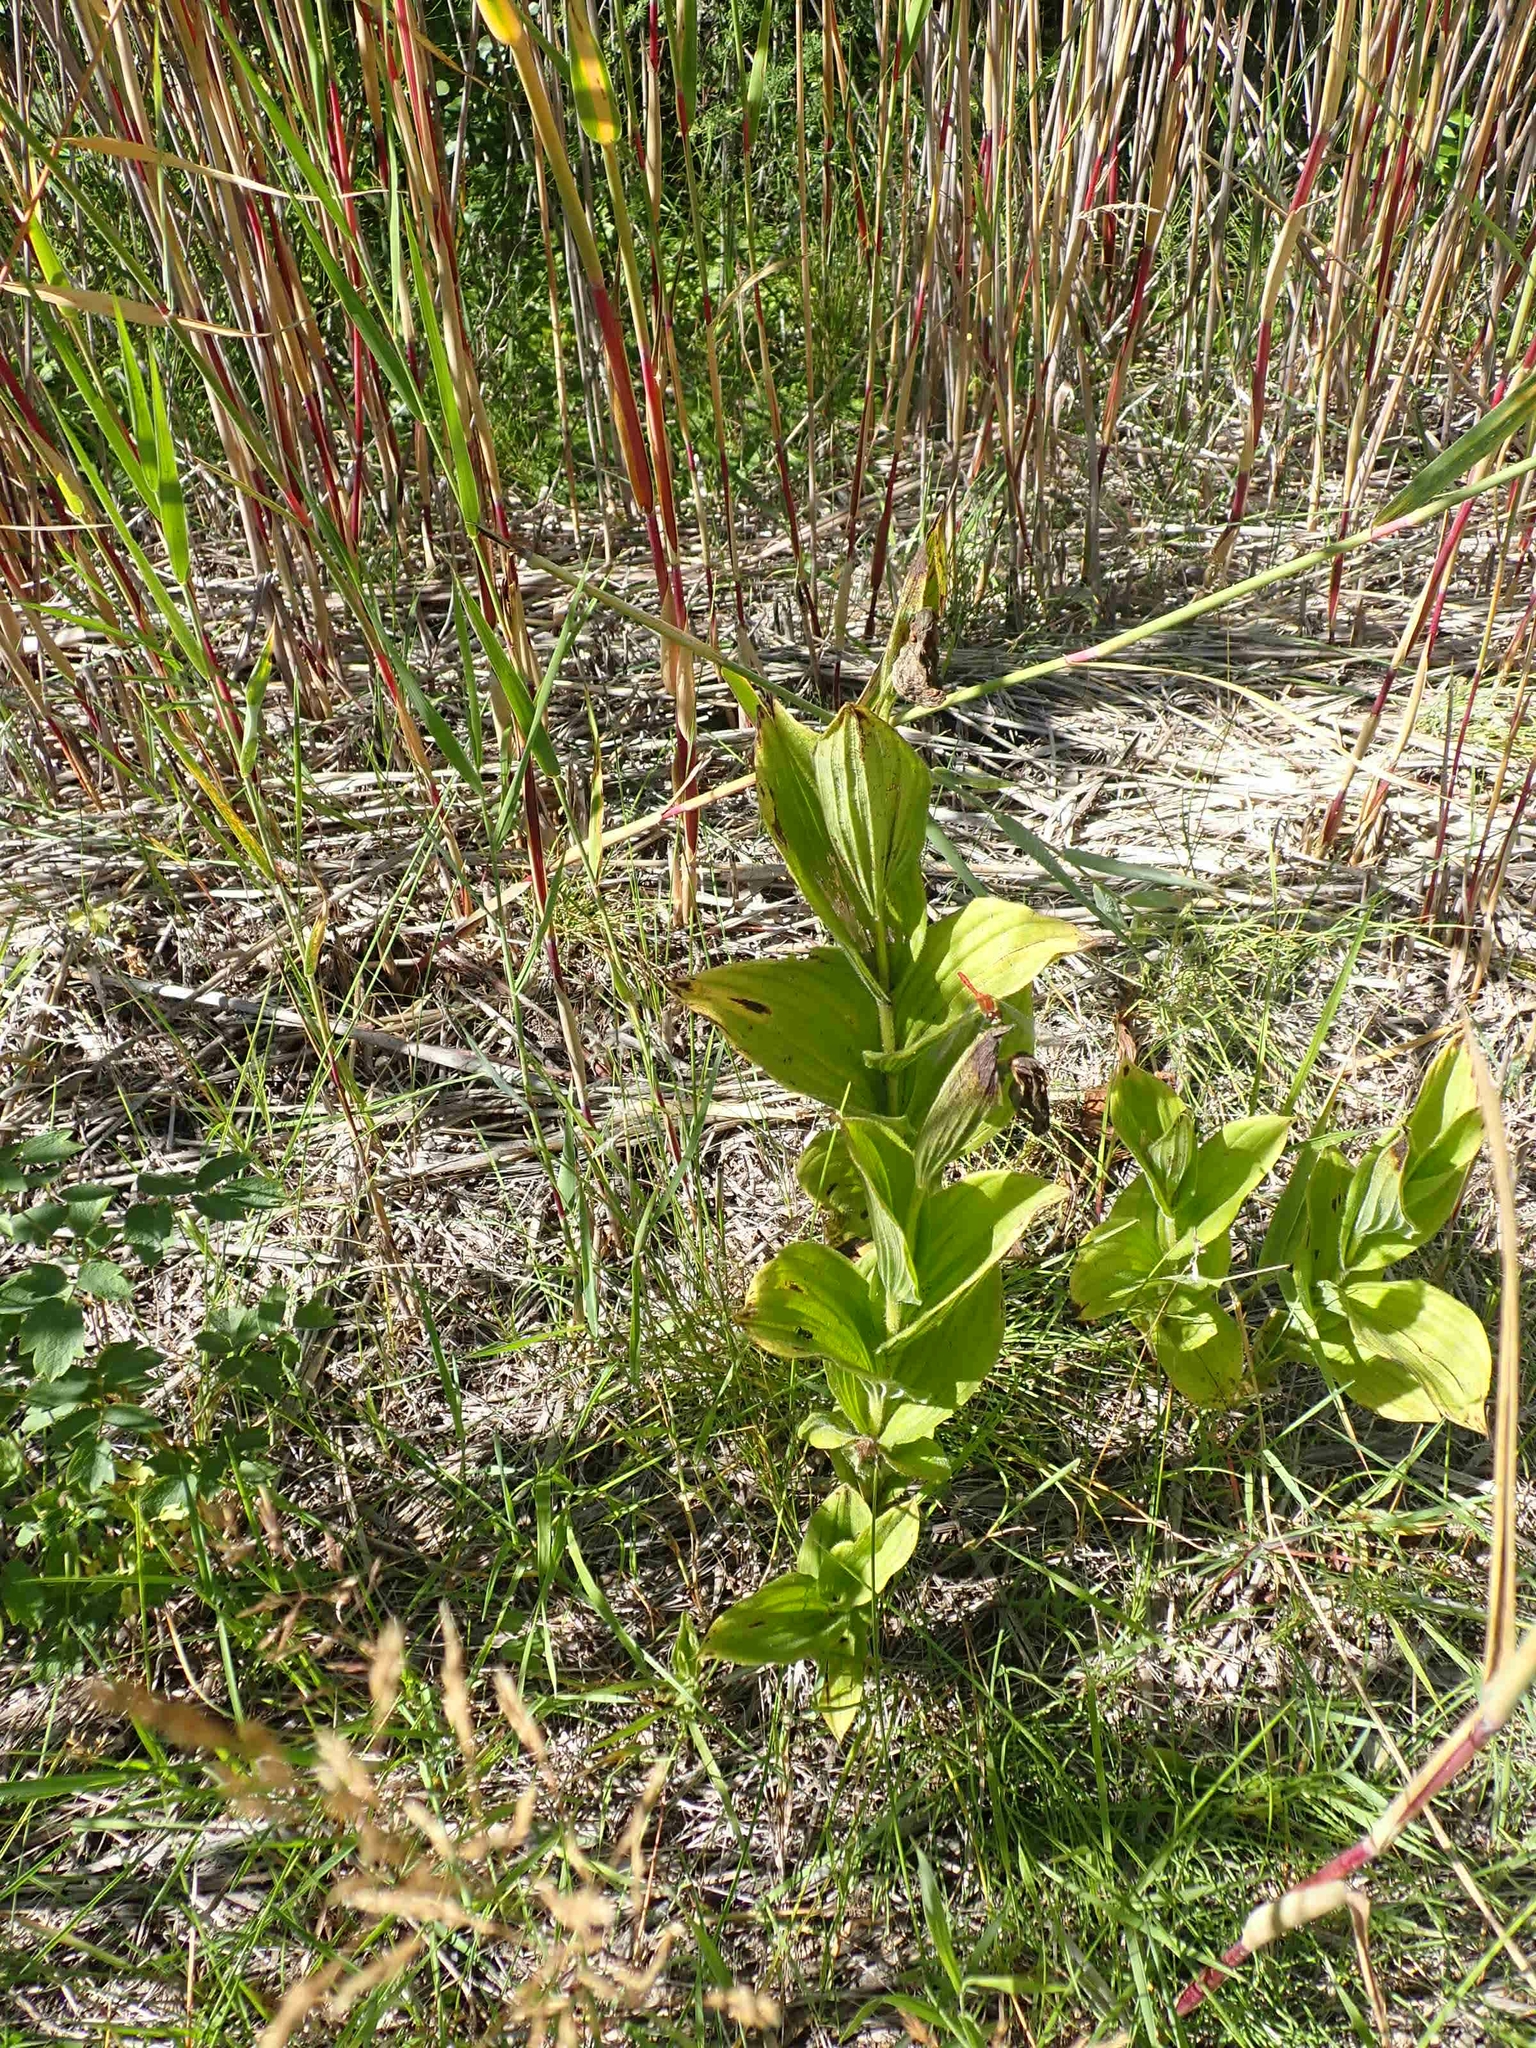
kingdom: Plantae
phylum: Tracheophyta
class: Liliopsida
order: Asparagales
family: Orchidaceae
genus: Cypripedium
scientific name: Cypripedium reginae
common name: Queen lady's-slipper
